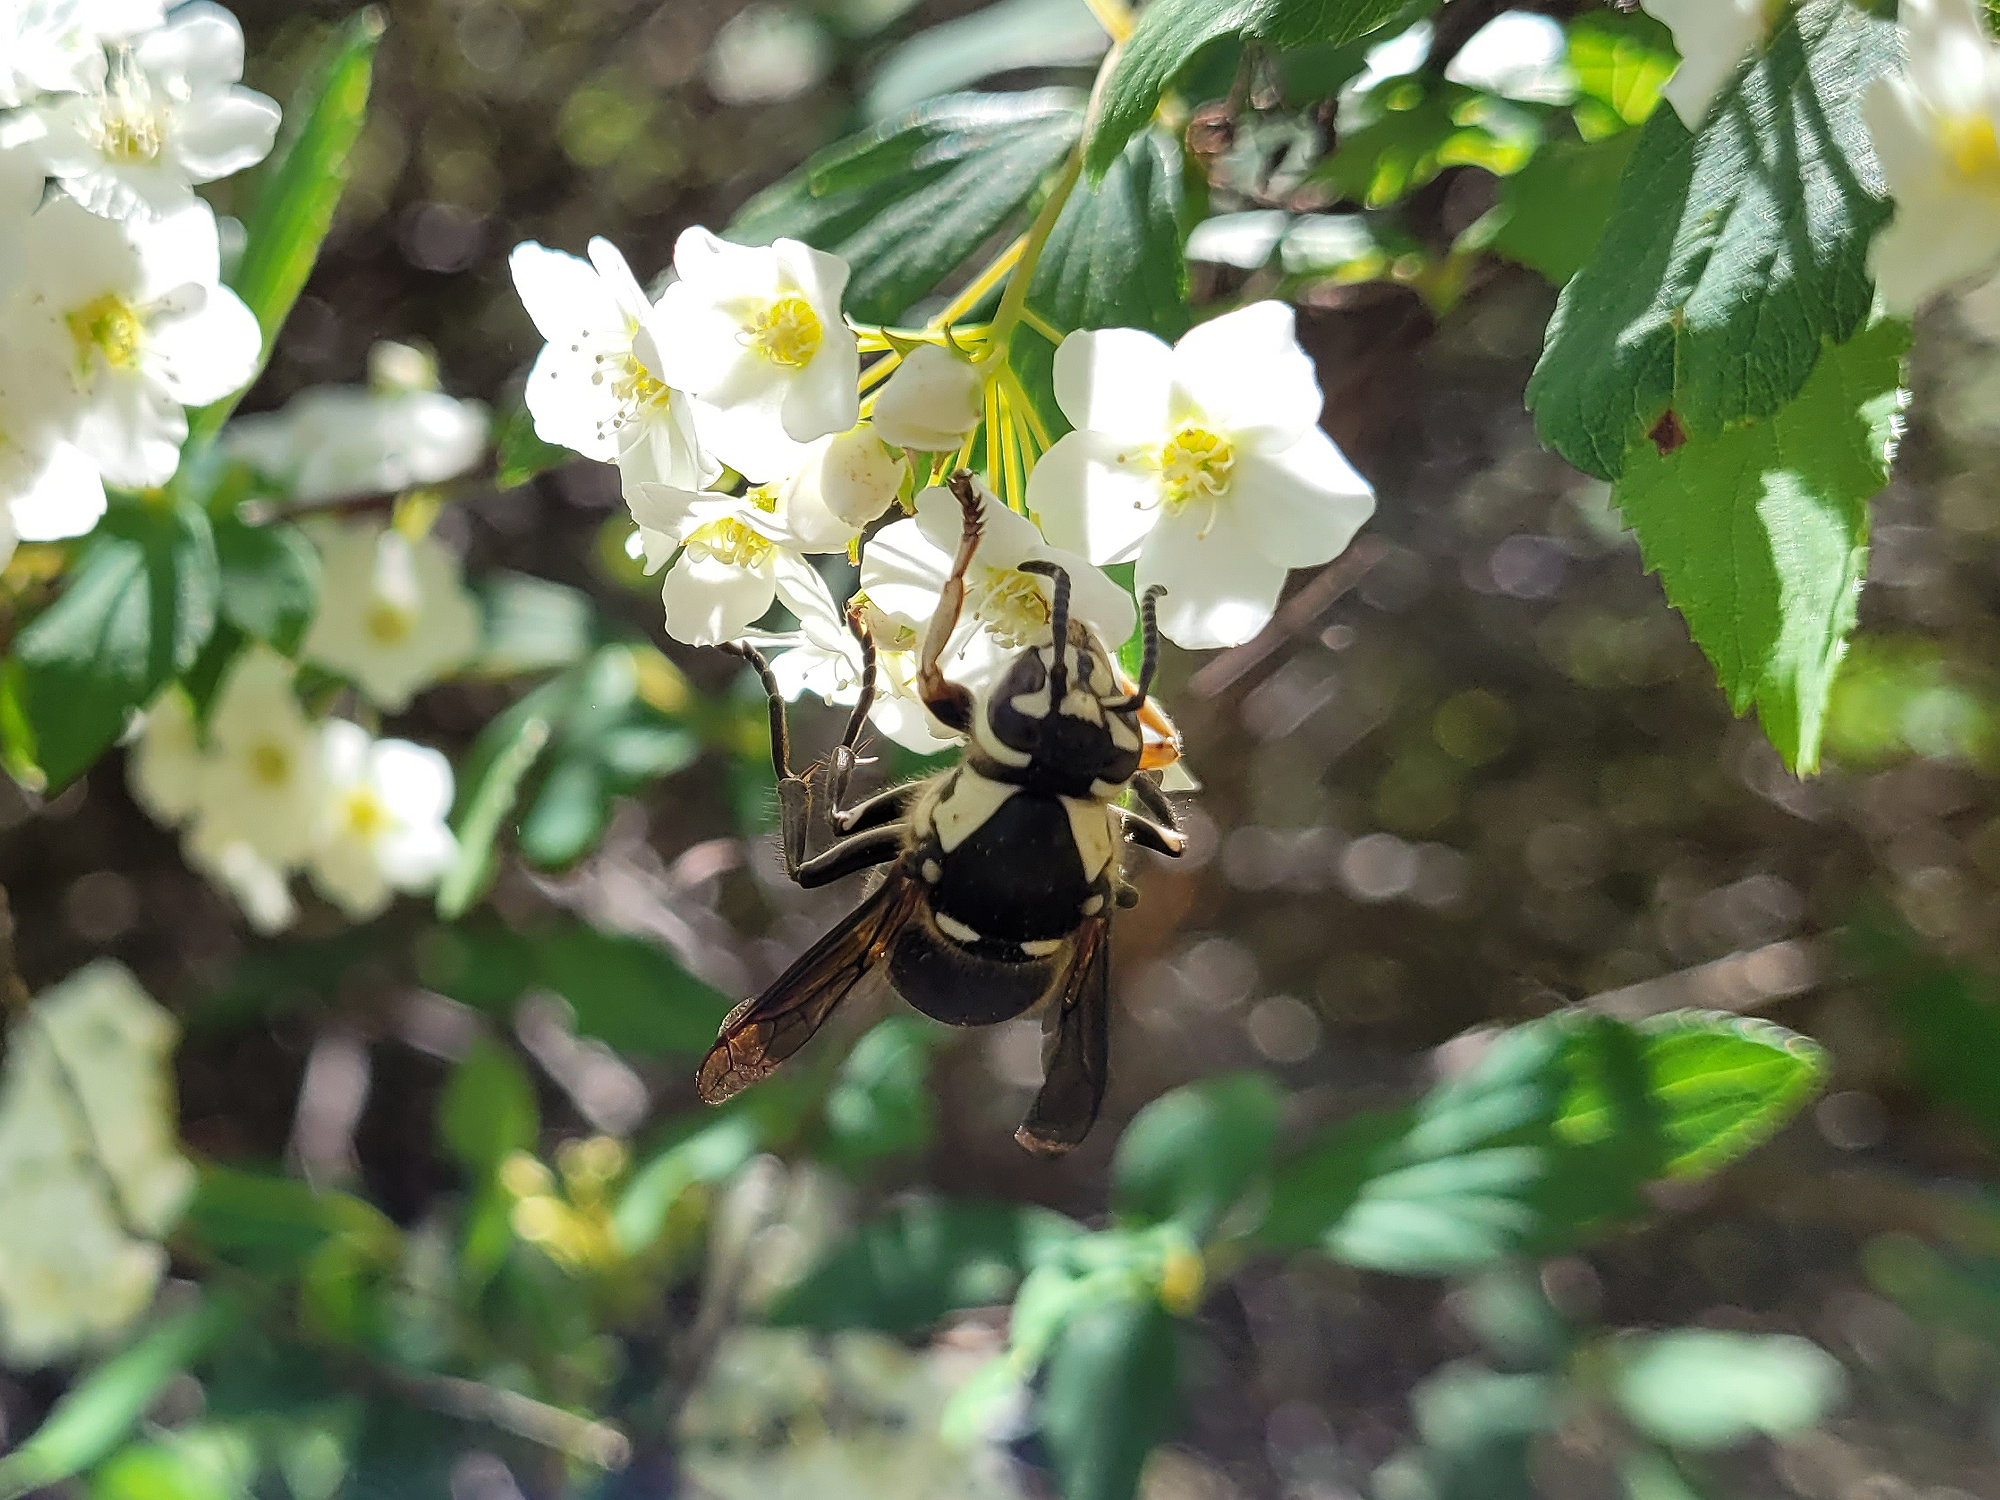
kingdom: Animalia
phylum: Arthropoda
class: Insecta
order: Hymenoptera
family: Vespidae
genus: Dolichovespula
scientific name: Dolichovespula maculata
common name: Bald-faced hornet
